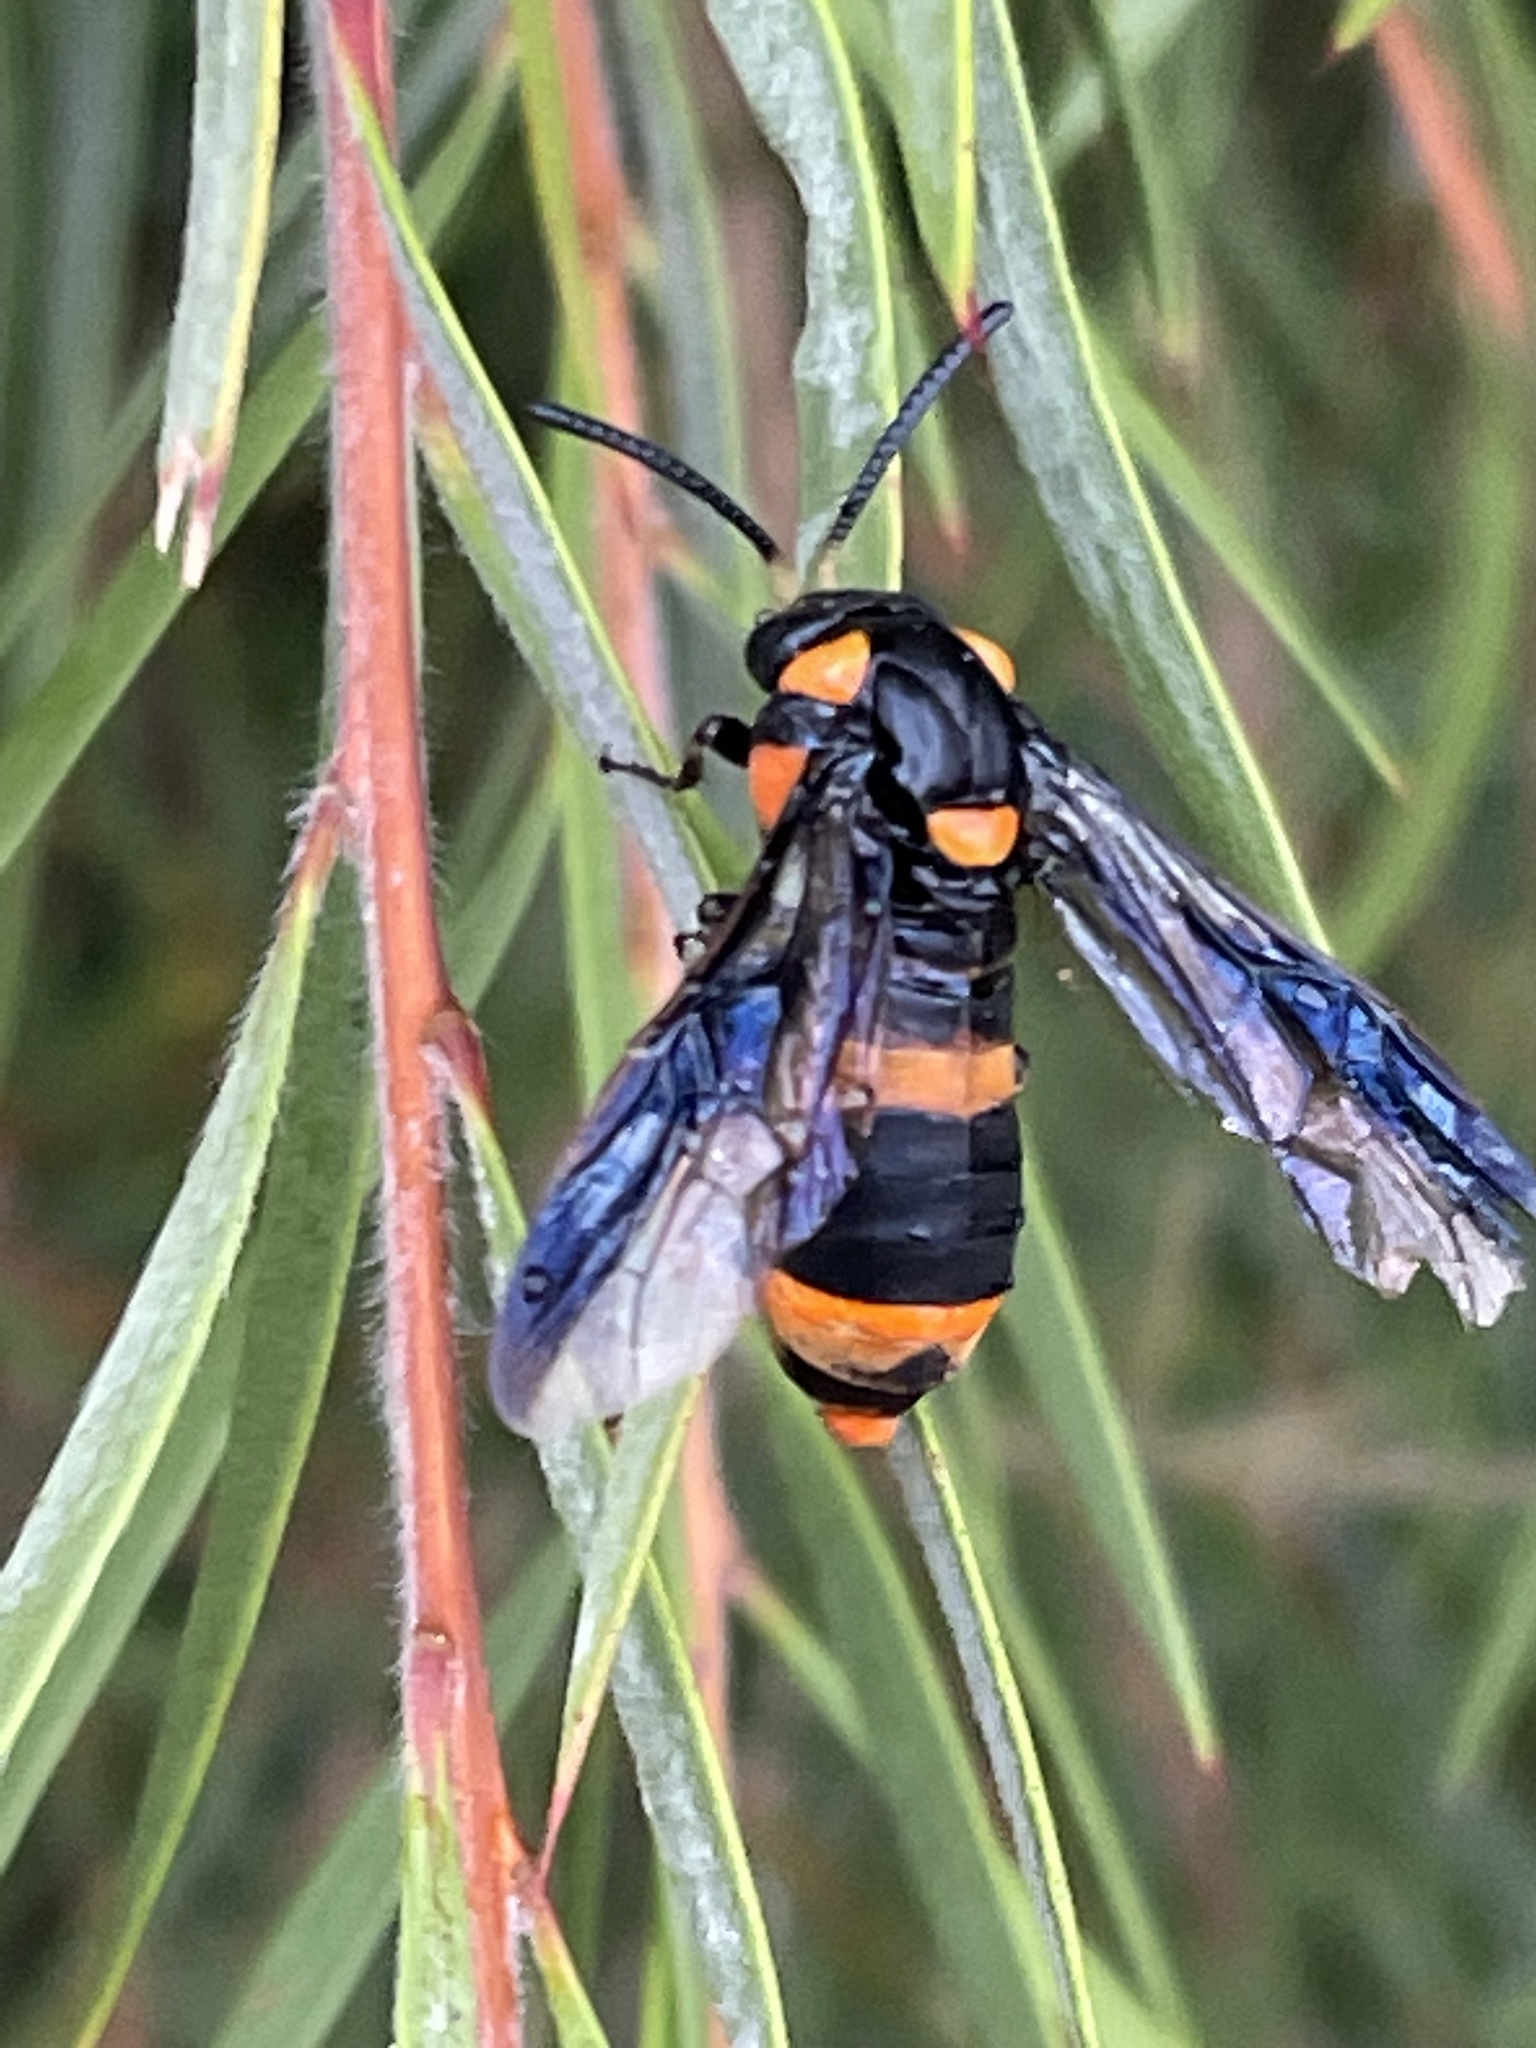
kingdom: Animalia
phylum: Arthropoda
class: Insecta
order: Hymenoptera
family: Pergidae
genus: Pterygophorus
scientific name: Pterygophorus
